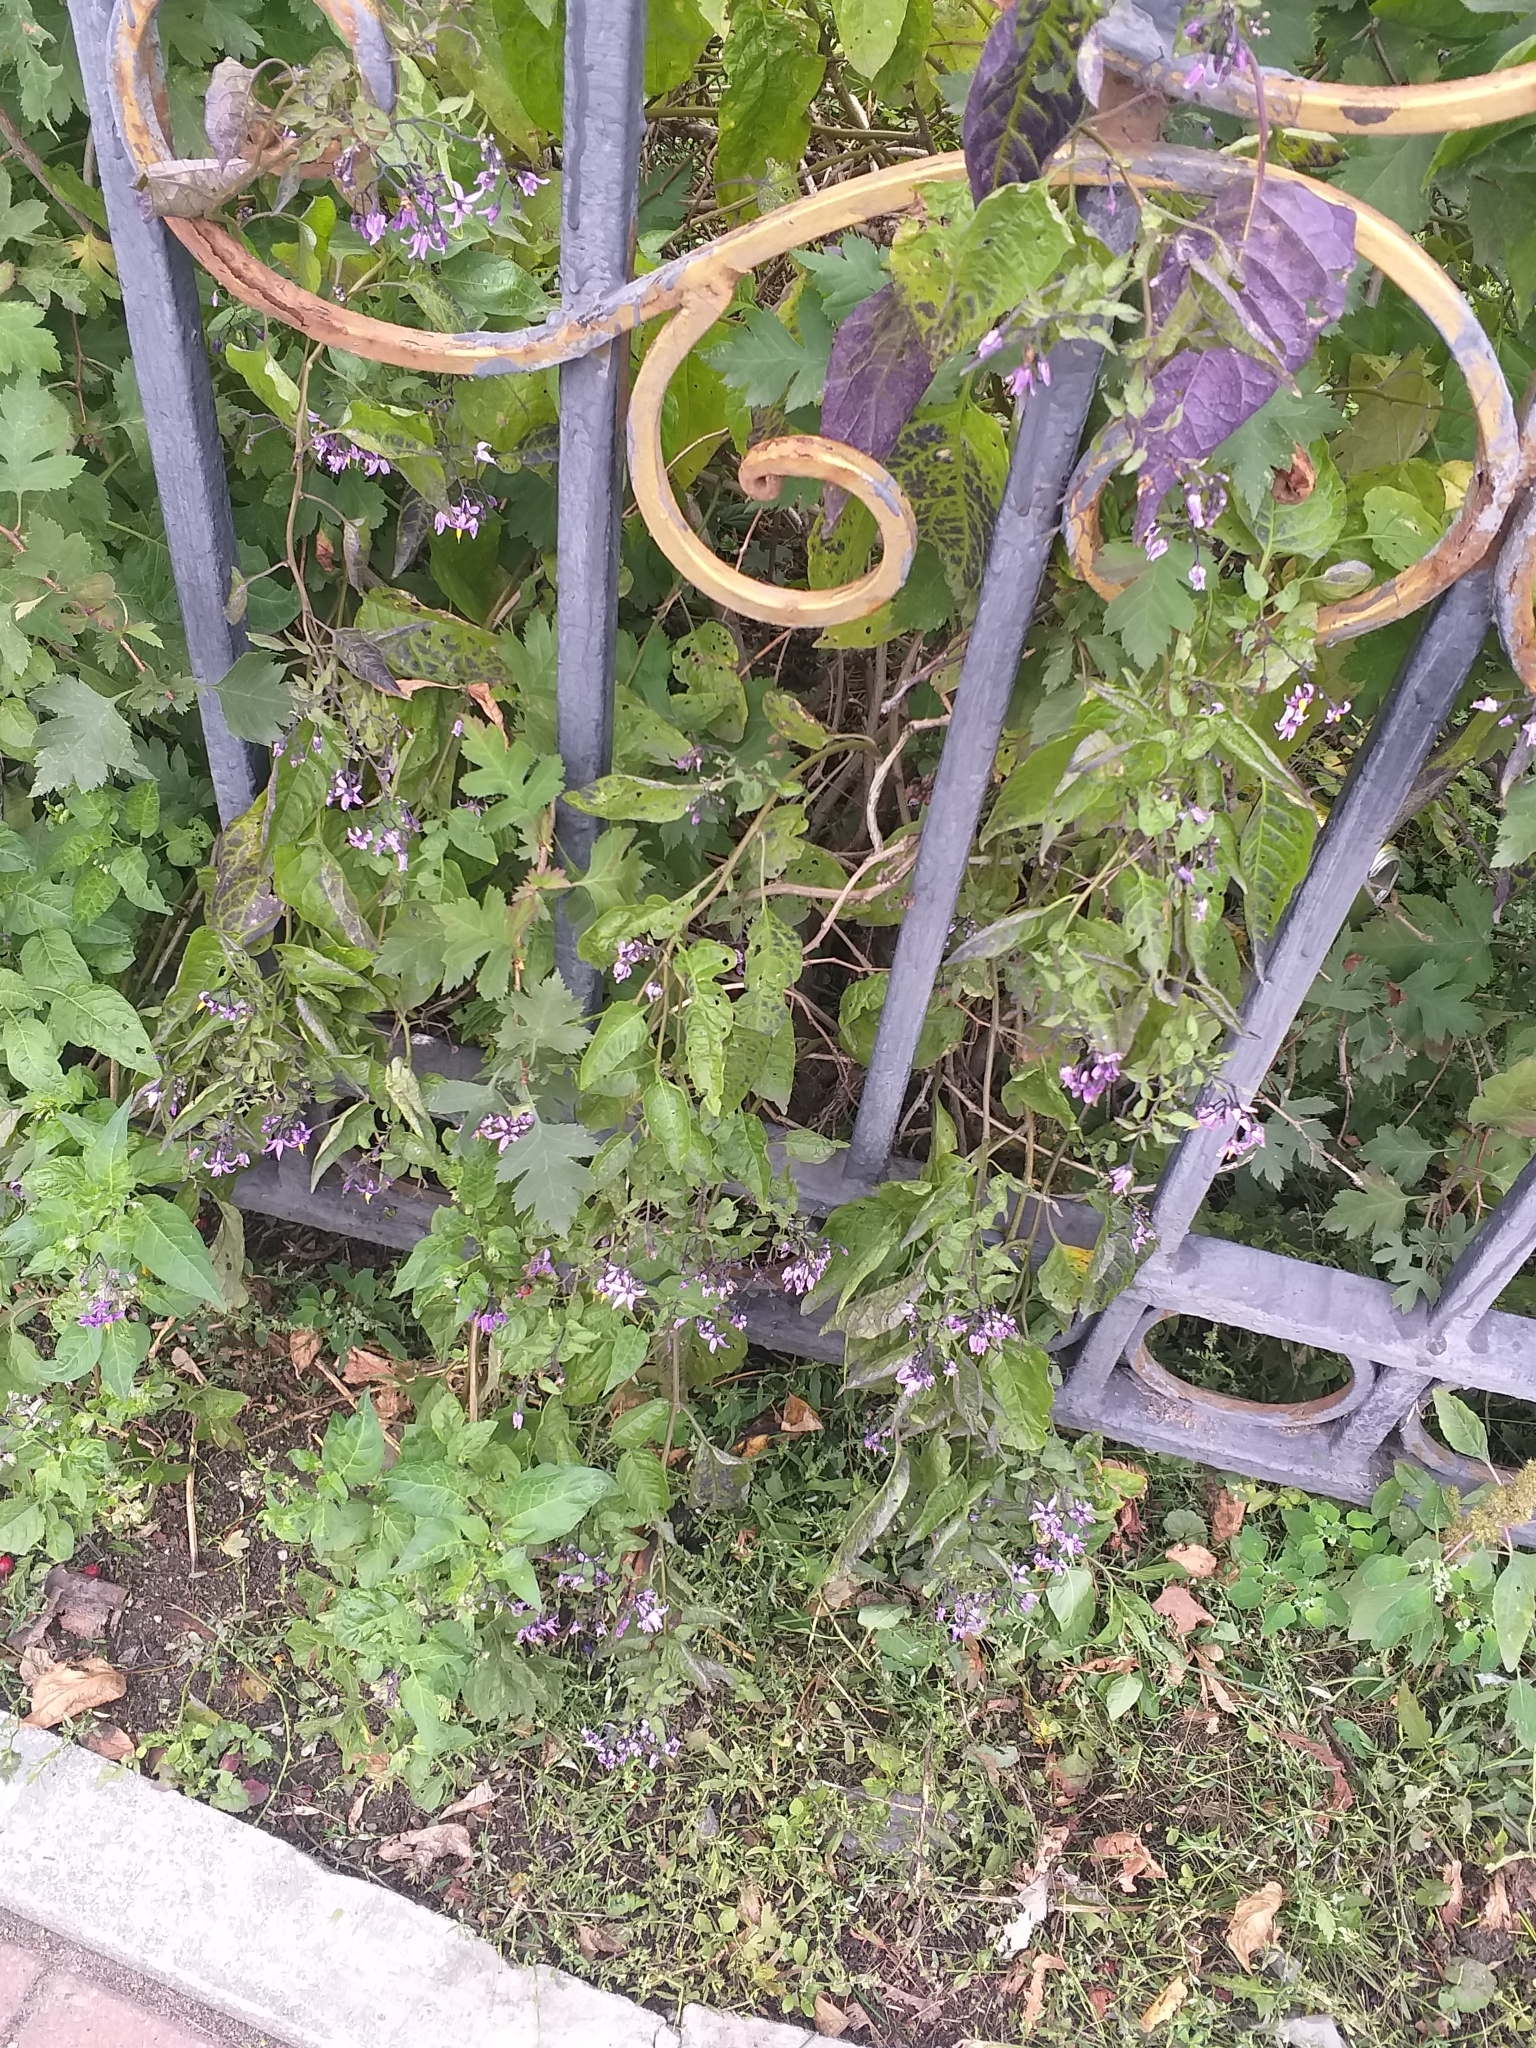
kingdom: Plantae
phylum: Tracheophyta
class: Magnoliopsida
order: Solanales
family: Solanaceae
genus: Solanum
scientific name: Solanum dulcamara
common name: Climbing nightshade
